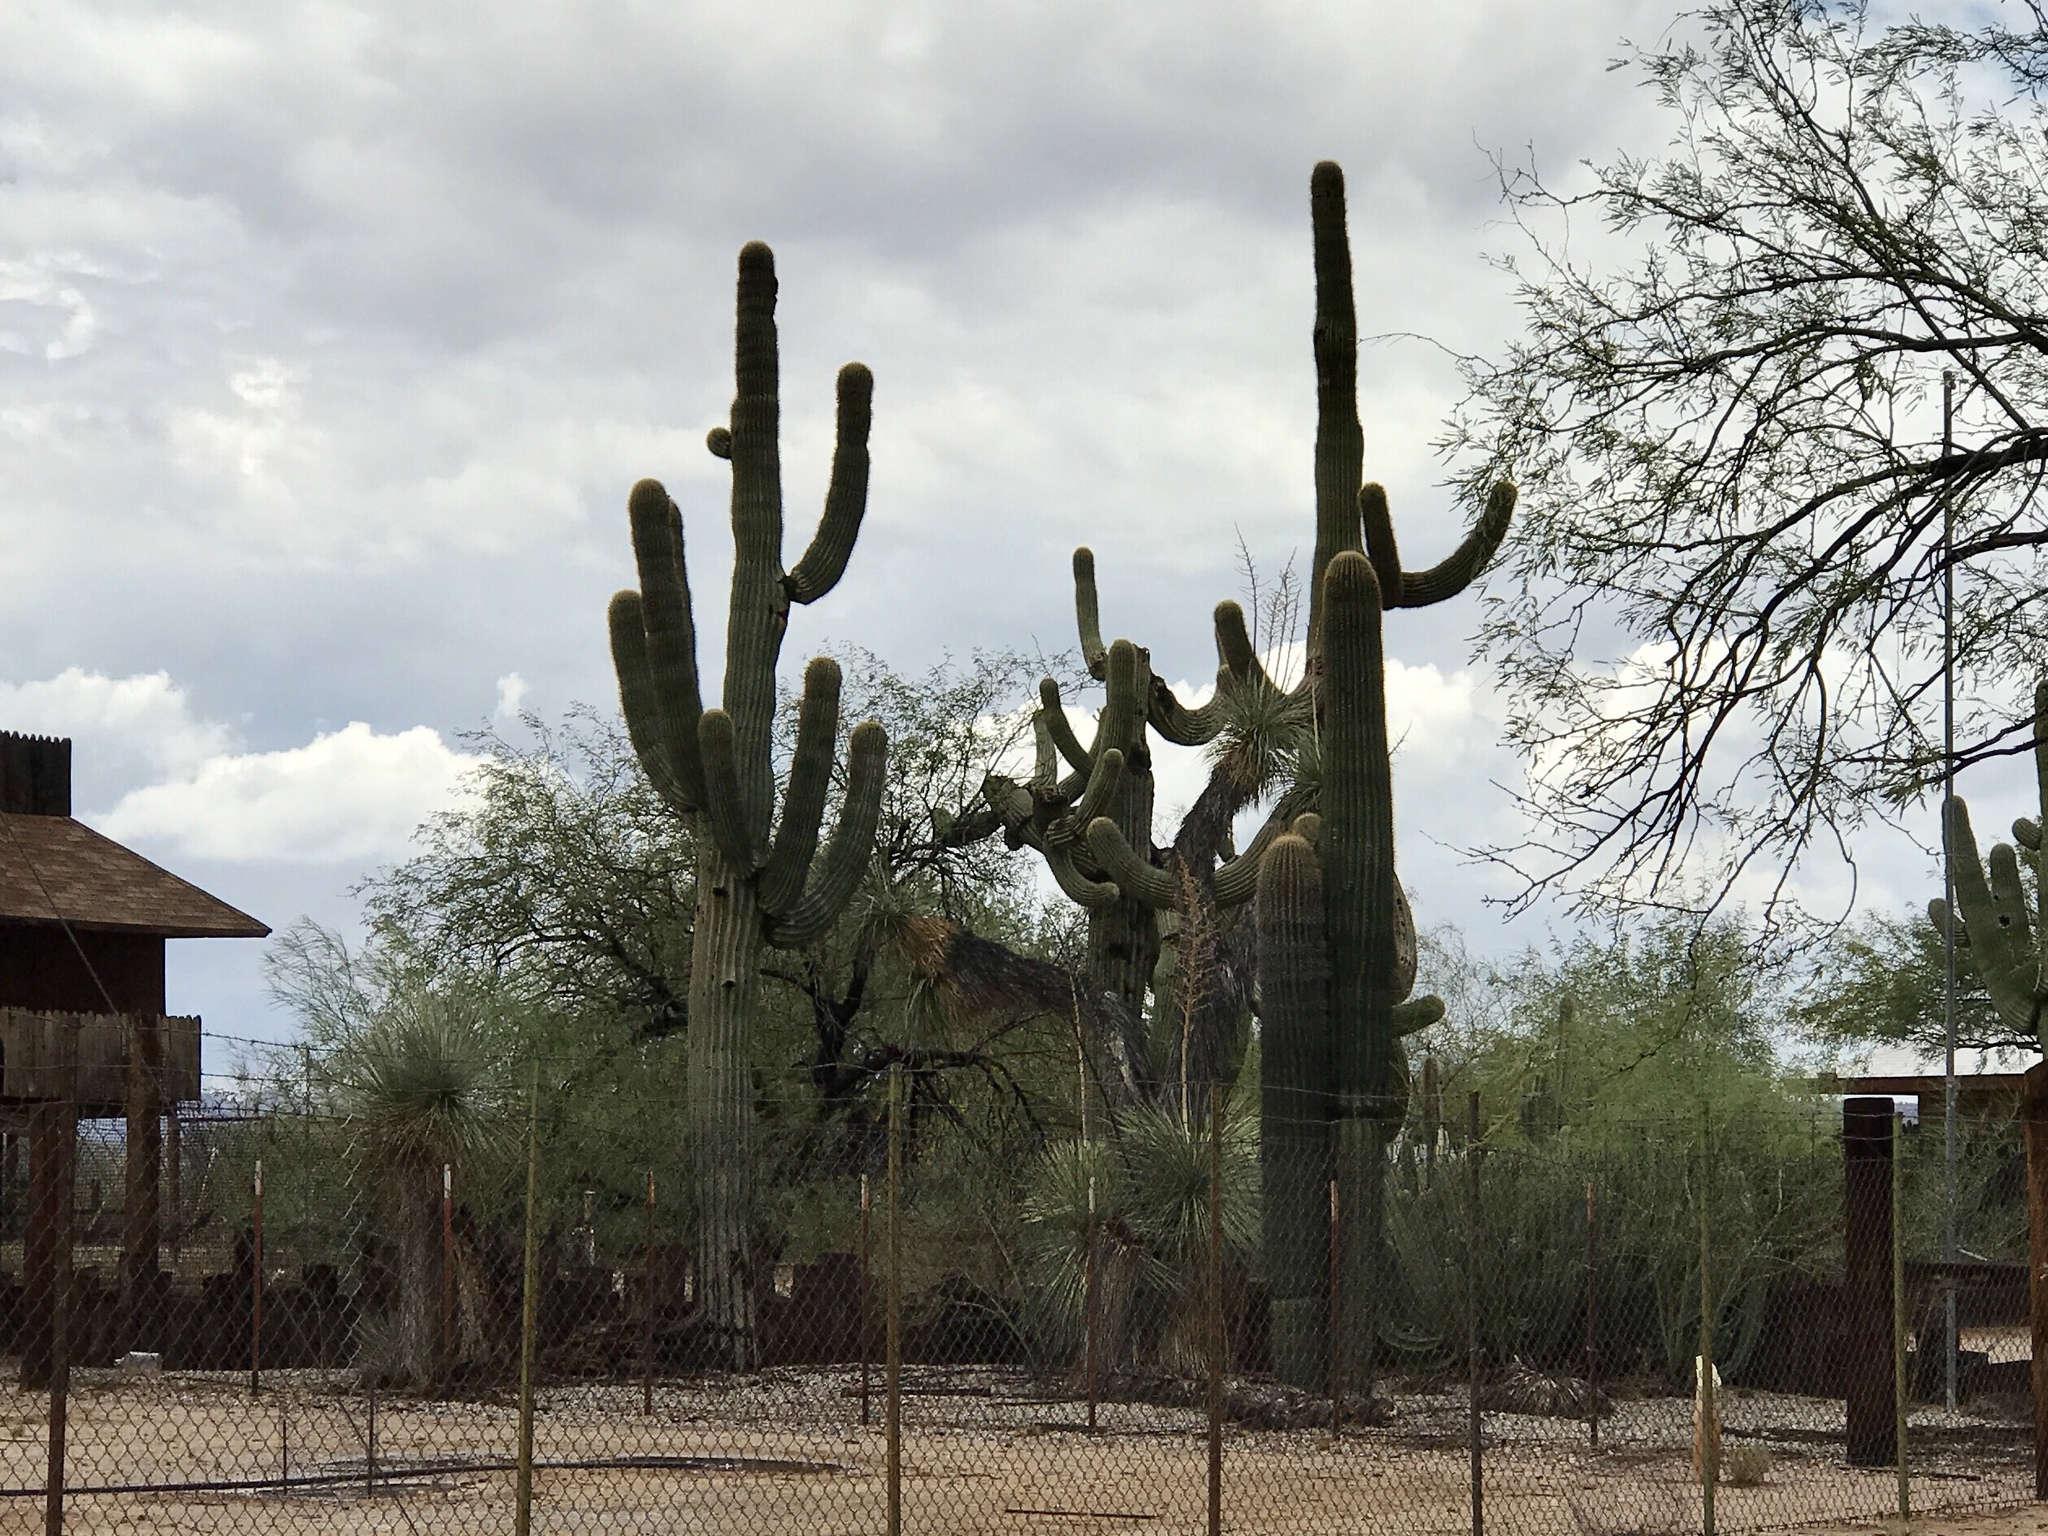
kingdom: Plantae
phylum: Tracheophyta
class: Magnoliopsida
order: Caryophyllales
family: Cactaceae
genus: Carnegiea
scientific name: Carnegiea gigantea
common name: Saguaro
